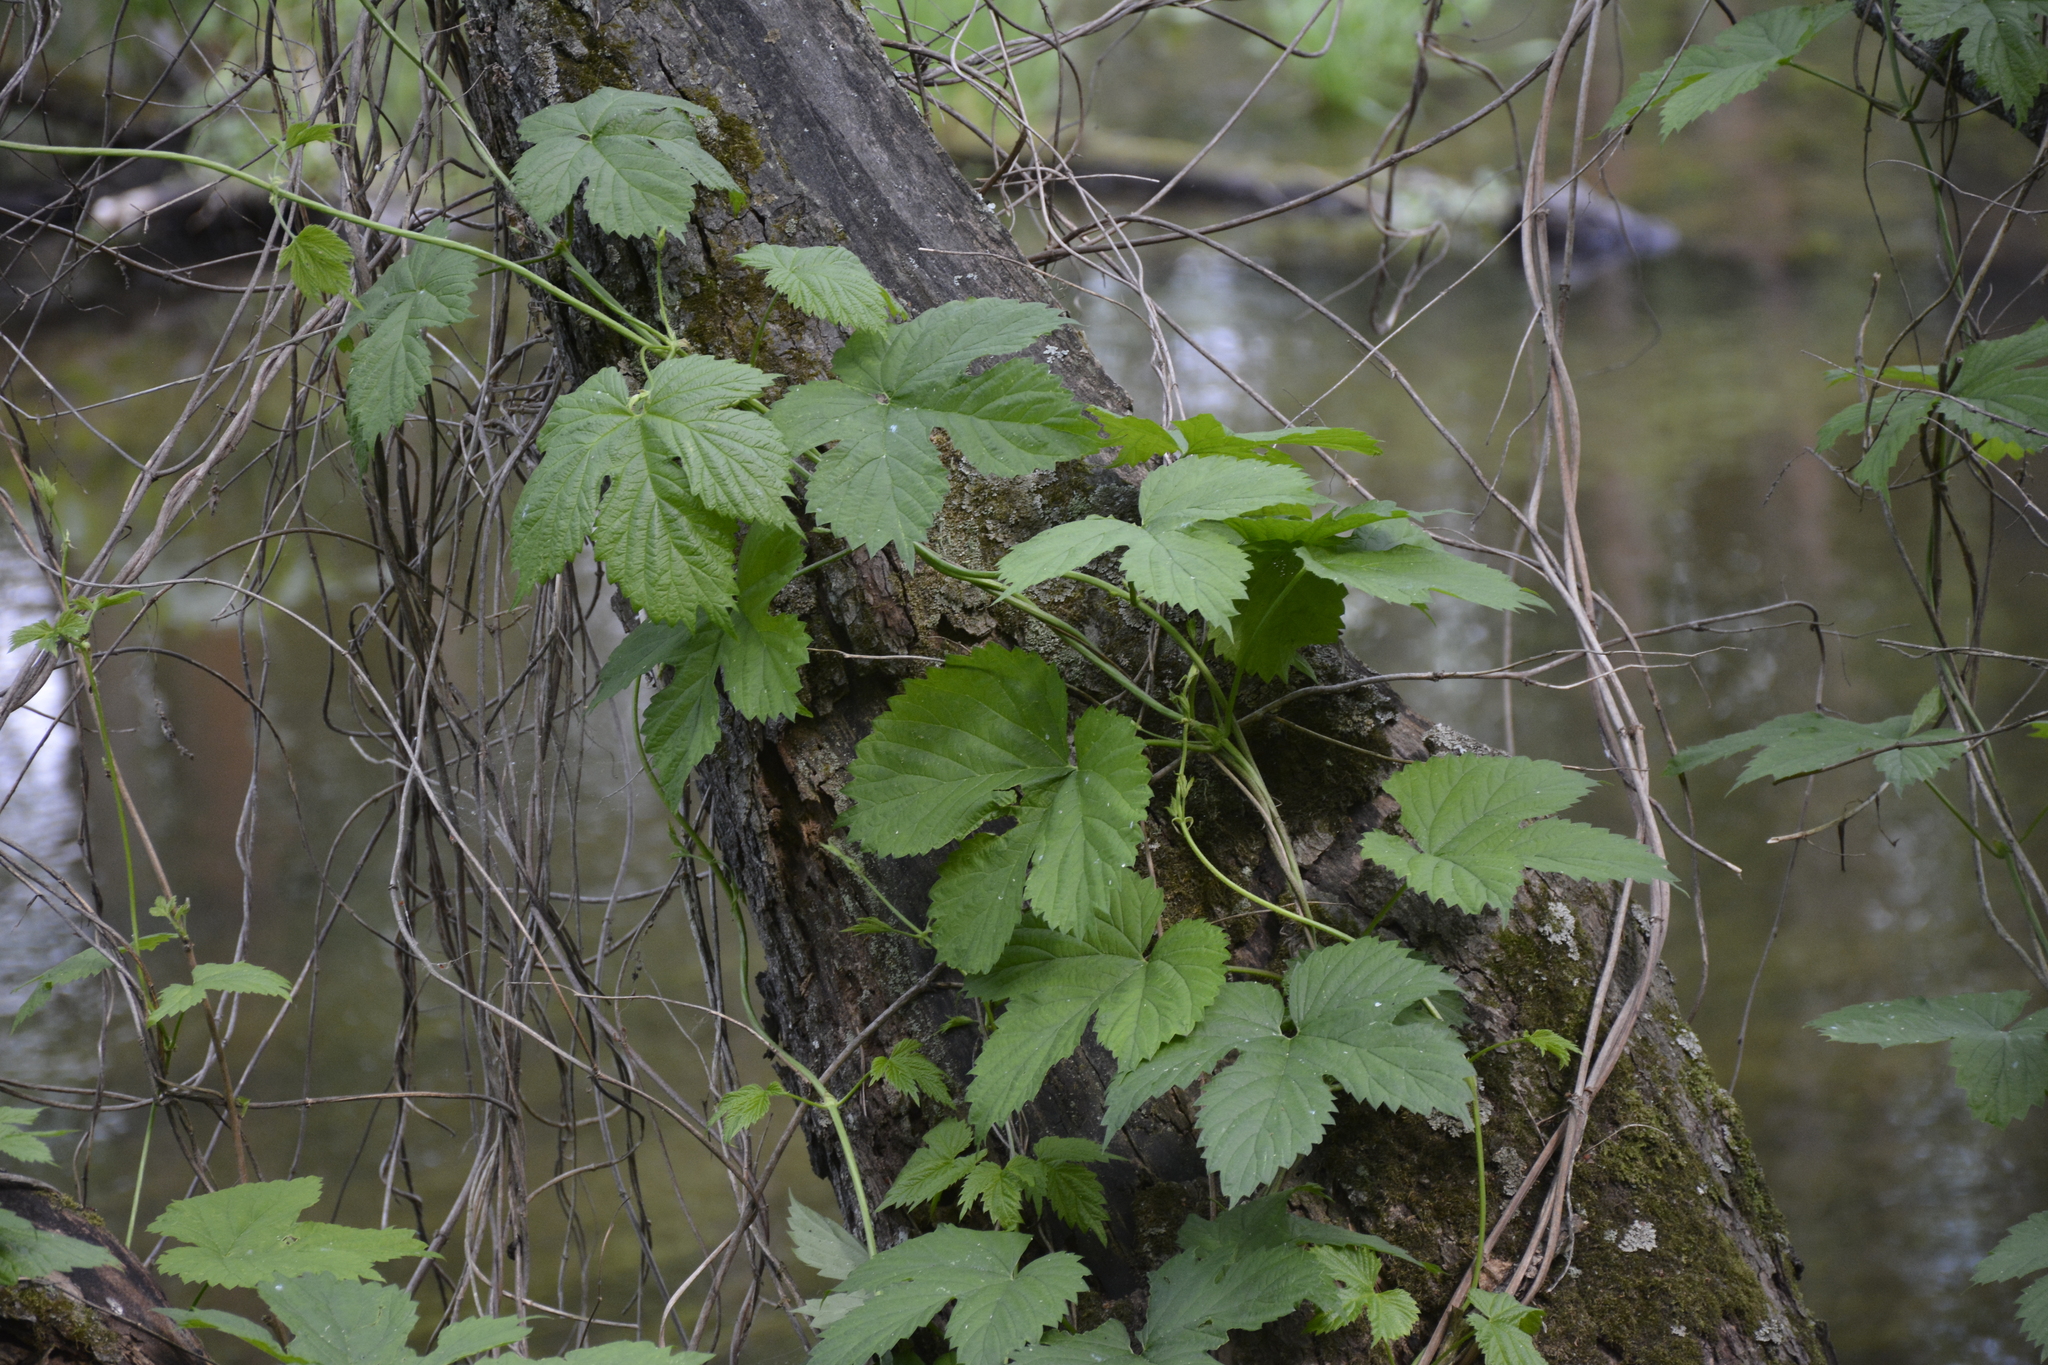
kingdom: Plantae
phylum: Tracheophyta
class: Magnoliopsida
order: Rosales
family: Cannabaceae
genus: Humulus
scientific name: Humulus lupulus
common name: Hop
